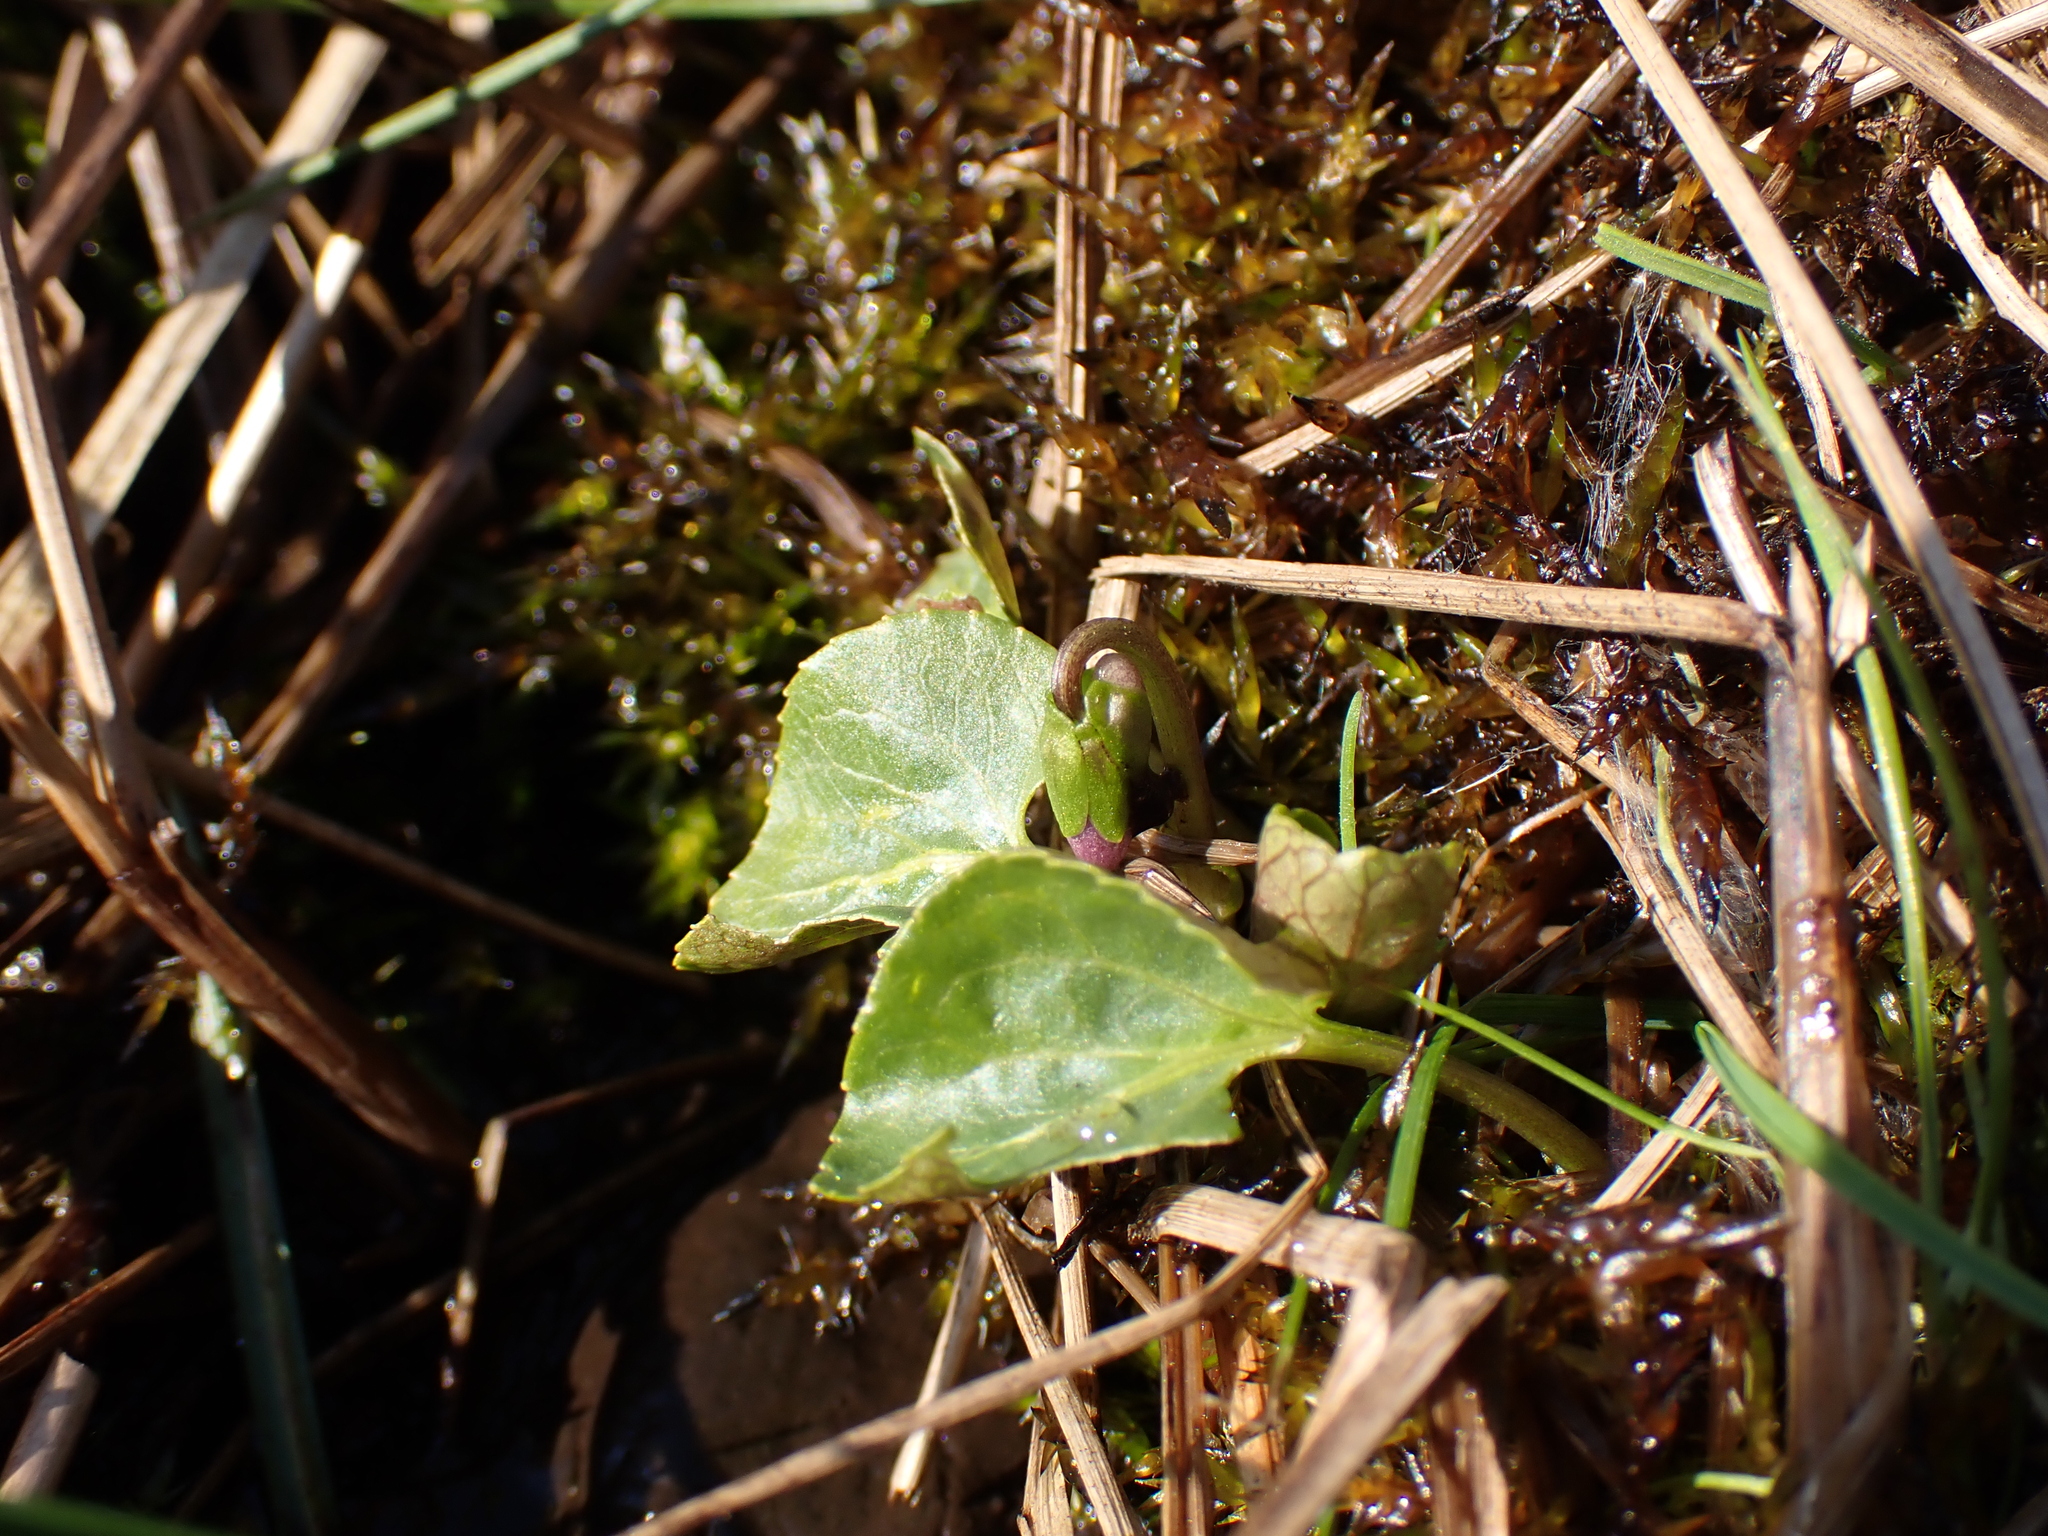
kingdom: Plantae
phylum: Tracheophyta
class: Magnoliopsida
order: Malpighiales
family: Violaceae
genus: Viola
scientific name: Viola palustris
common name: Marsh violet
